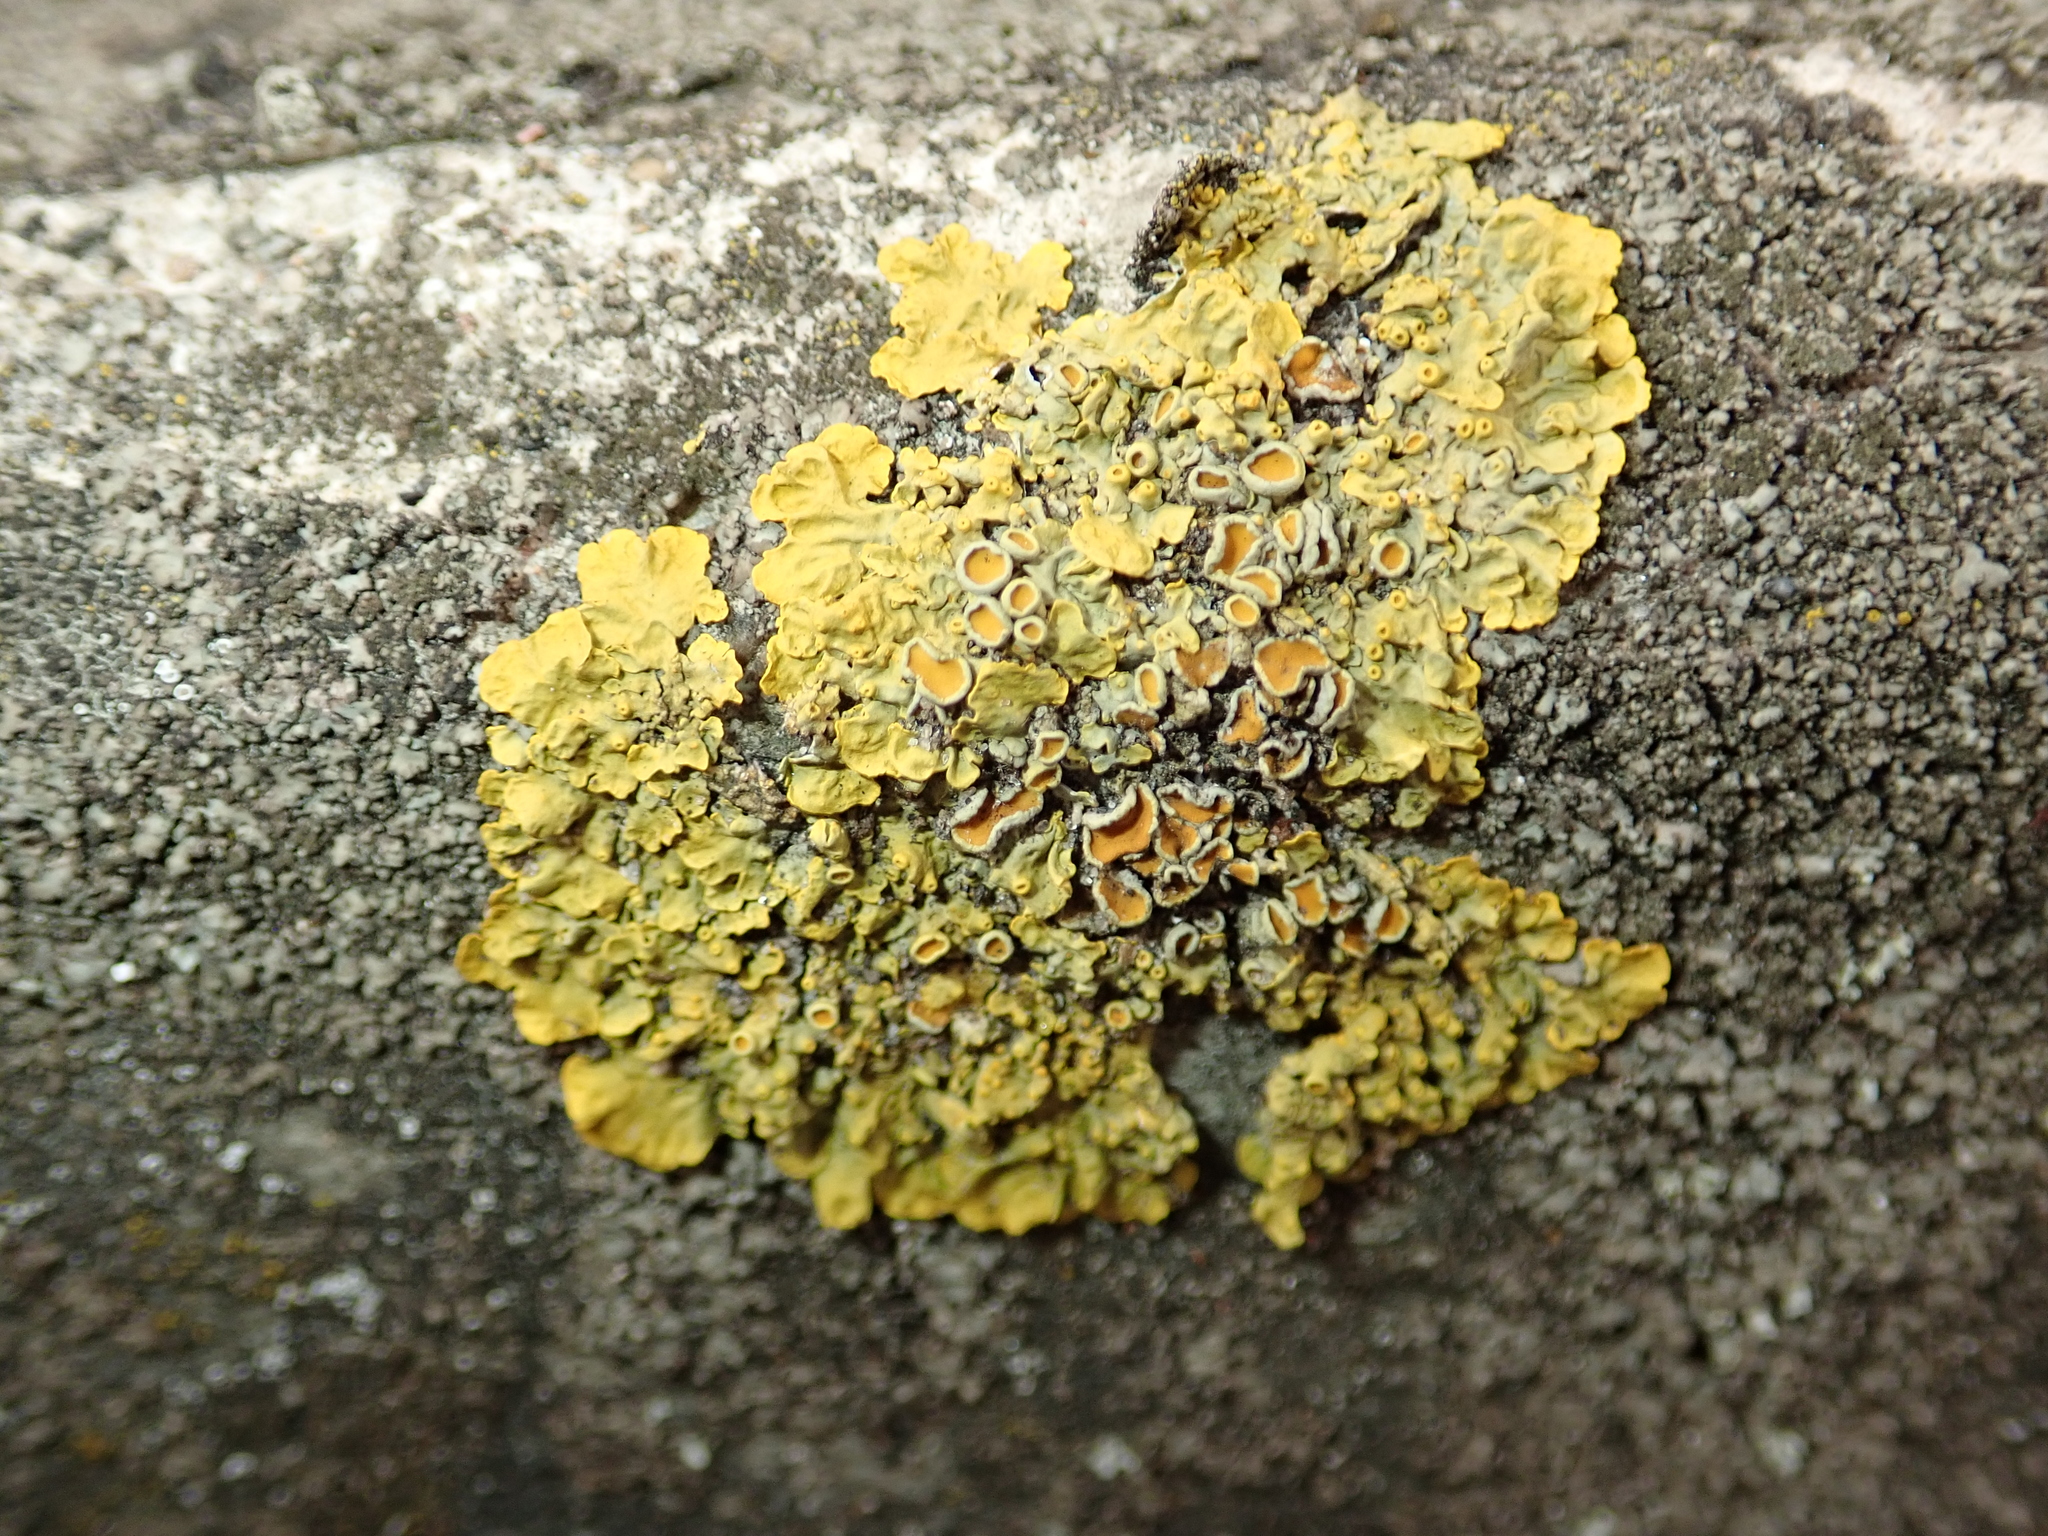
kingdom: Fungi
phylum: Ascomycota
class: Lecanoromycetes
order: Teloschistales
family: Teloschistaceae
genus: Xanthoria
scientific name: Xanthoria parietina
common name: Common orange lichen
